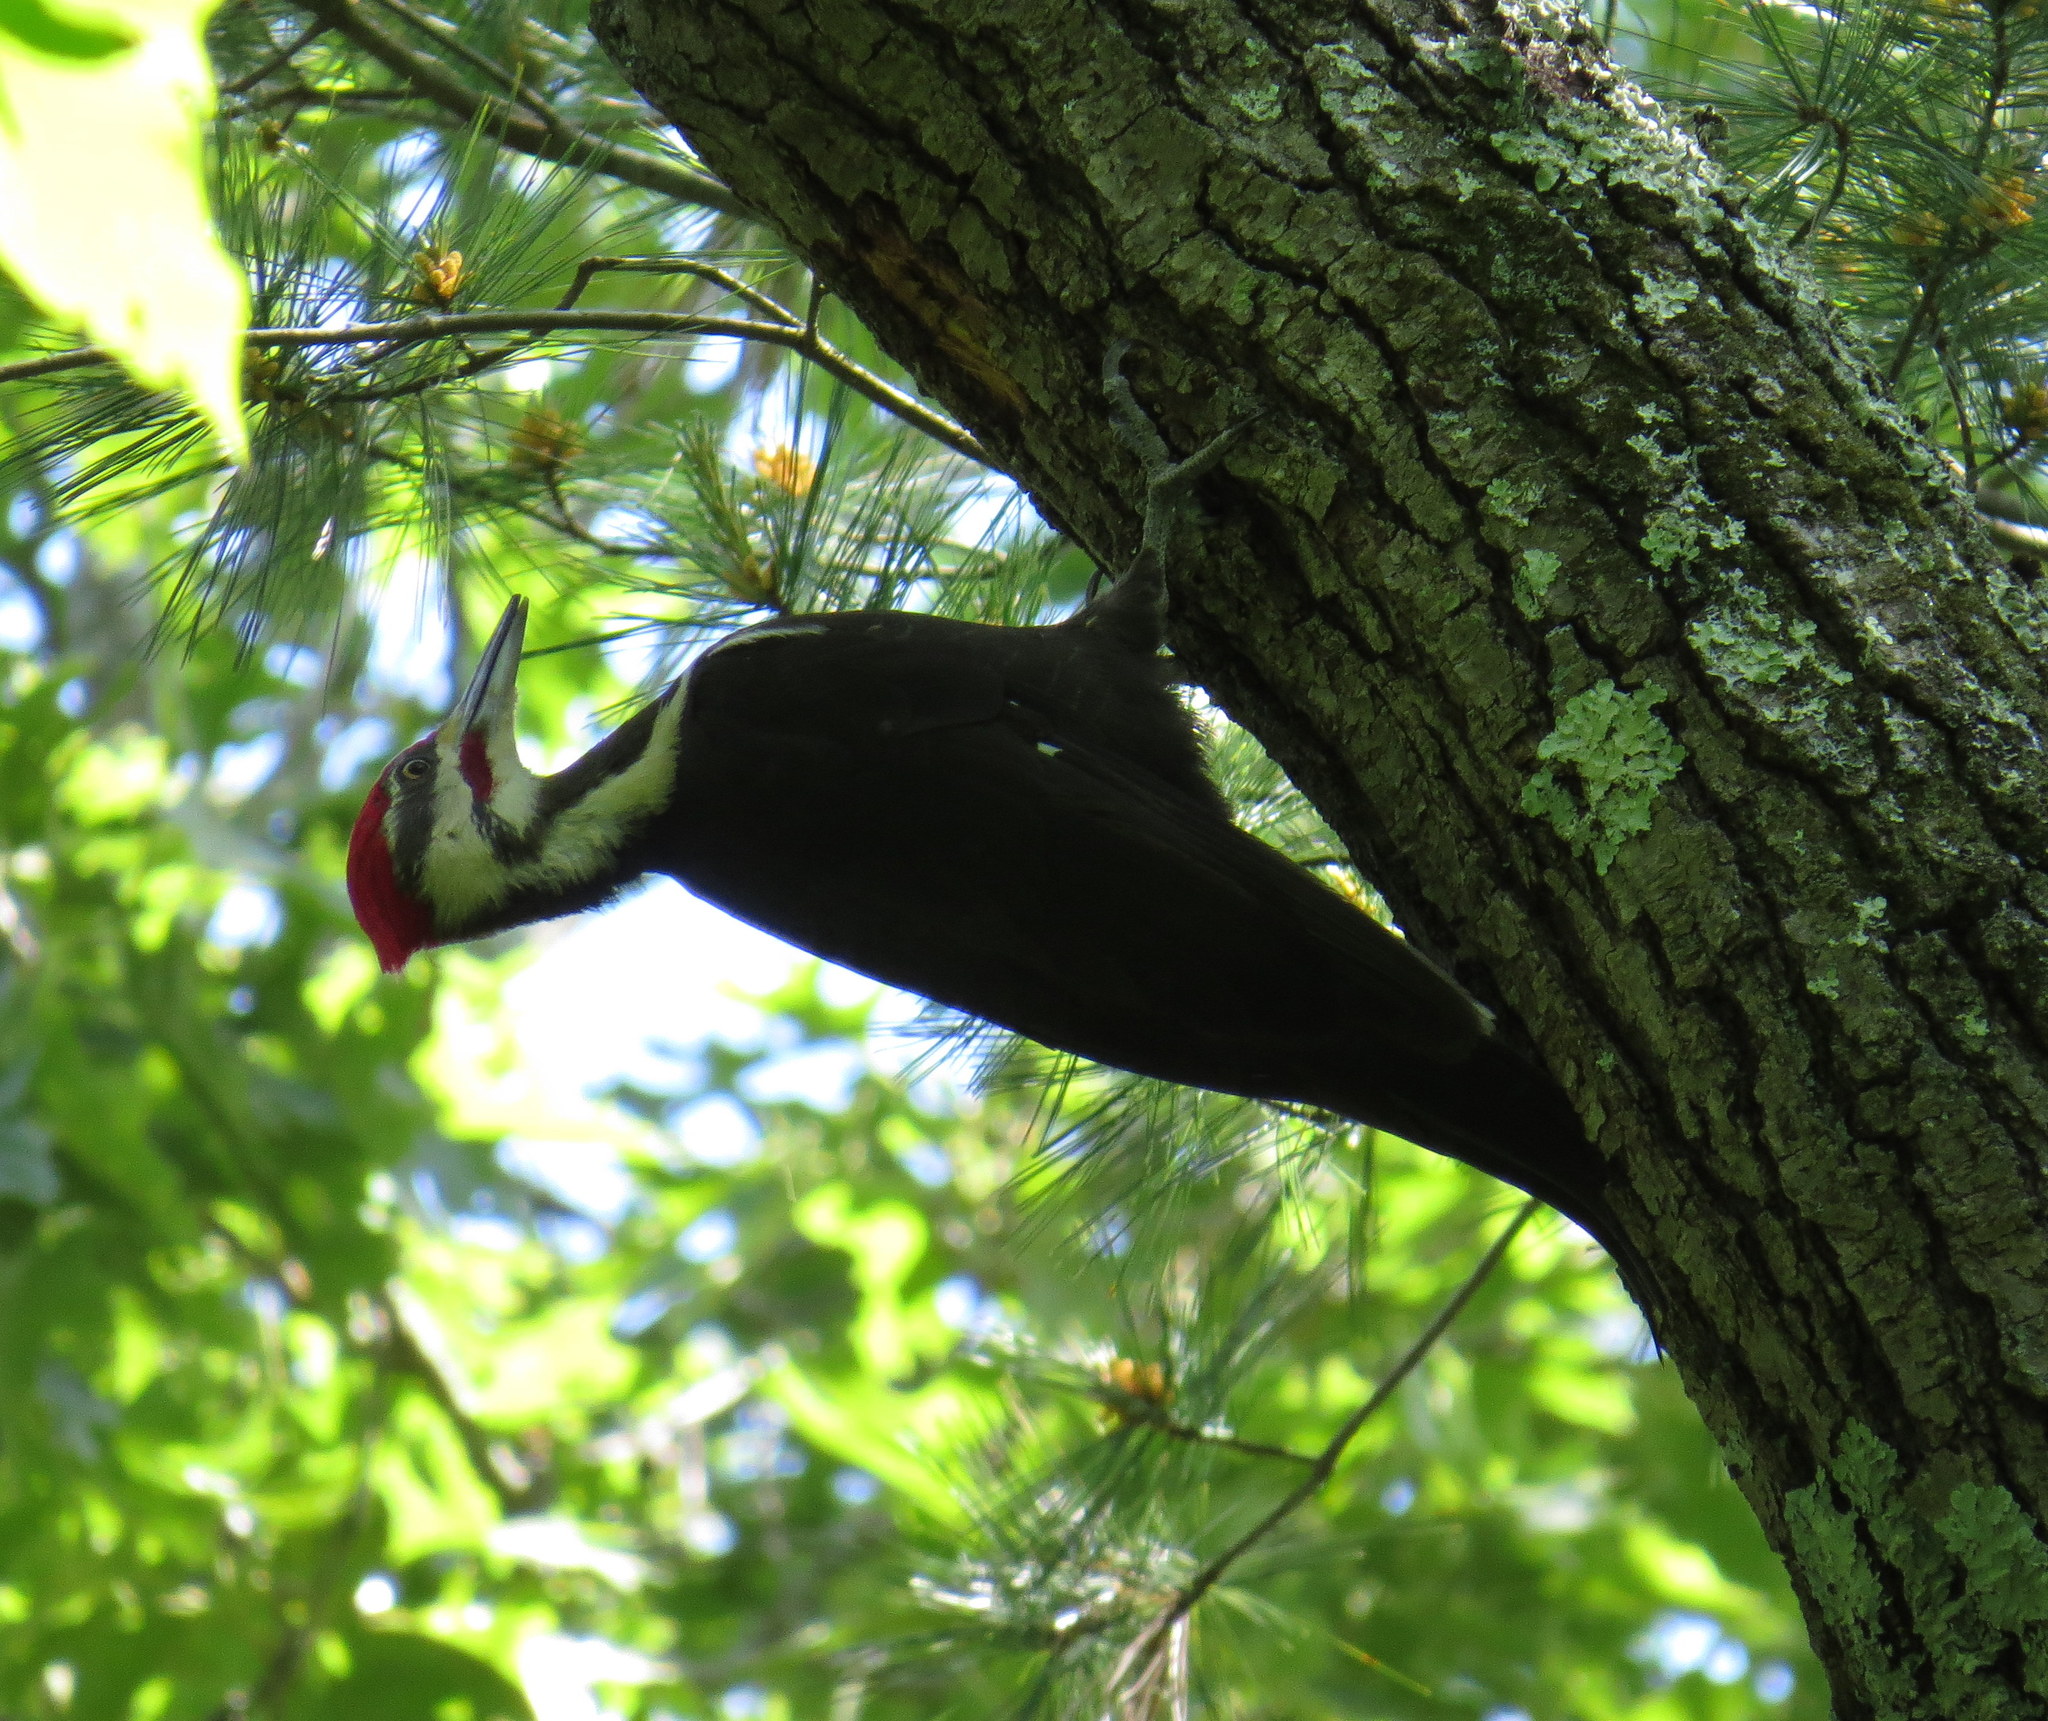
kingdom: Animalia
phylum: Chordata
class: Aves
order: Piciformes
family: Picidae
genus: Dryocopus
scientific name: Dryocopus pileatus
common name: Pileated woodpecker
